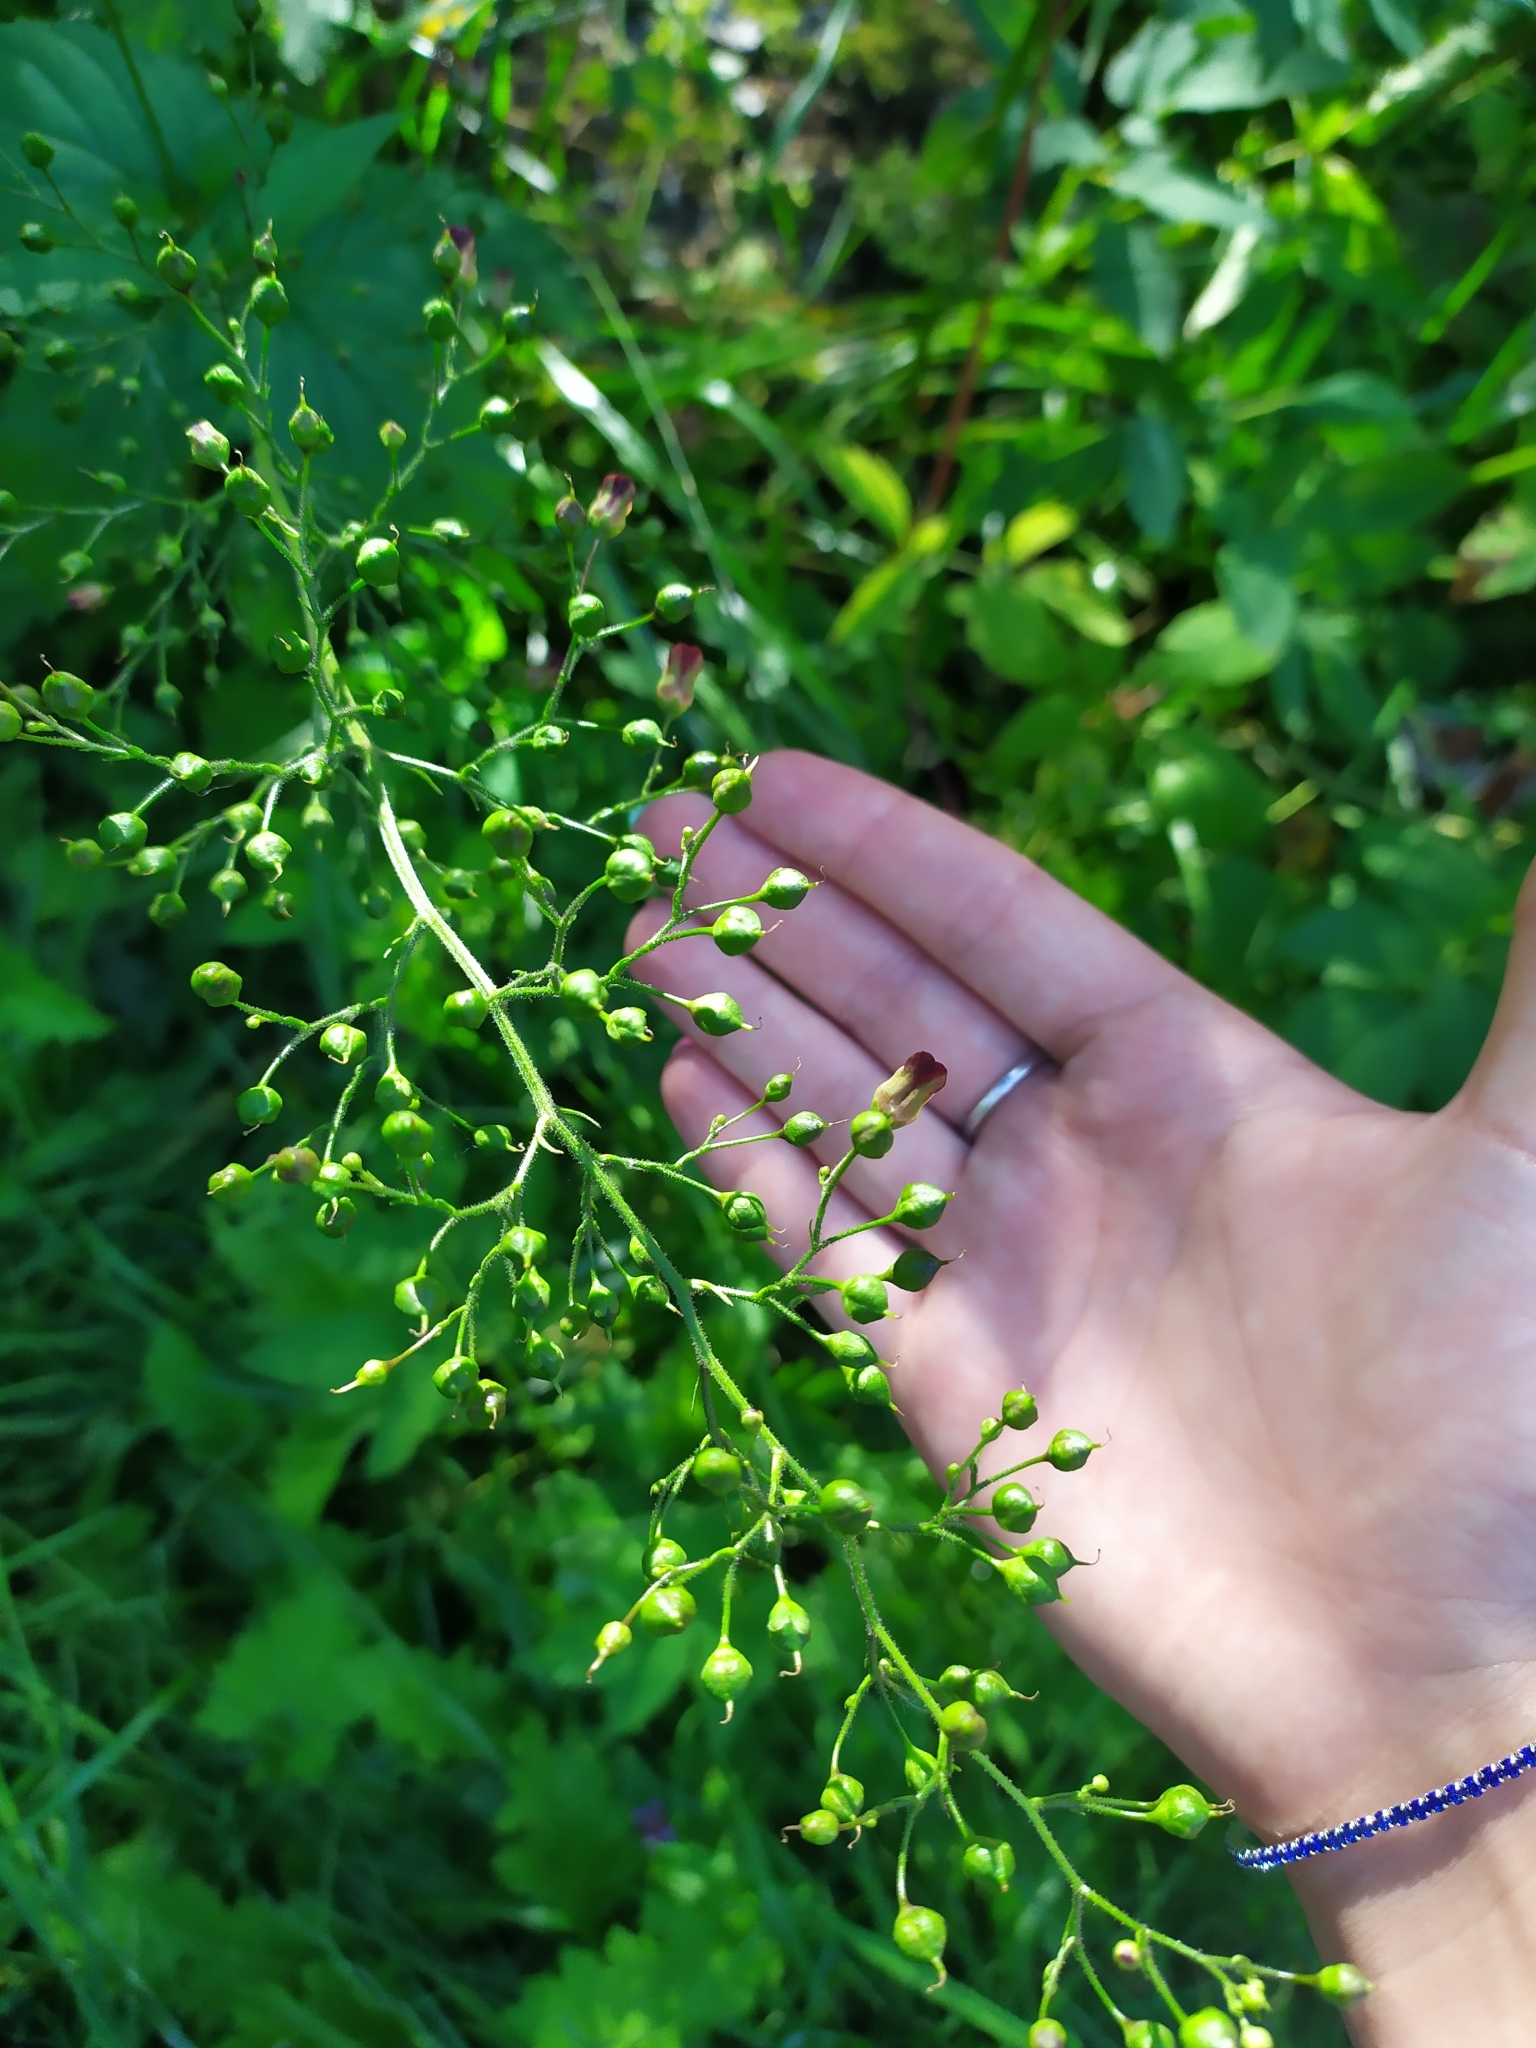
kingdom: Plantae
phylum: Tracheophyta
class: Magnoliopsida
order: Lamiales
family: Scrophulariaceae
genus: Scrophularia
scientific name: Scrophularia nodosa
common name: Common figwort
